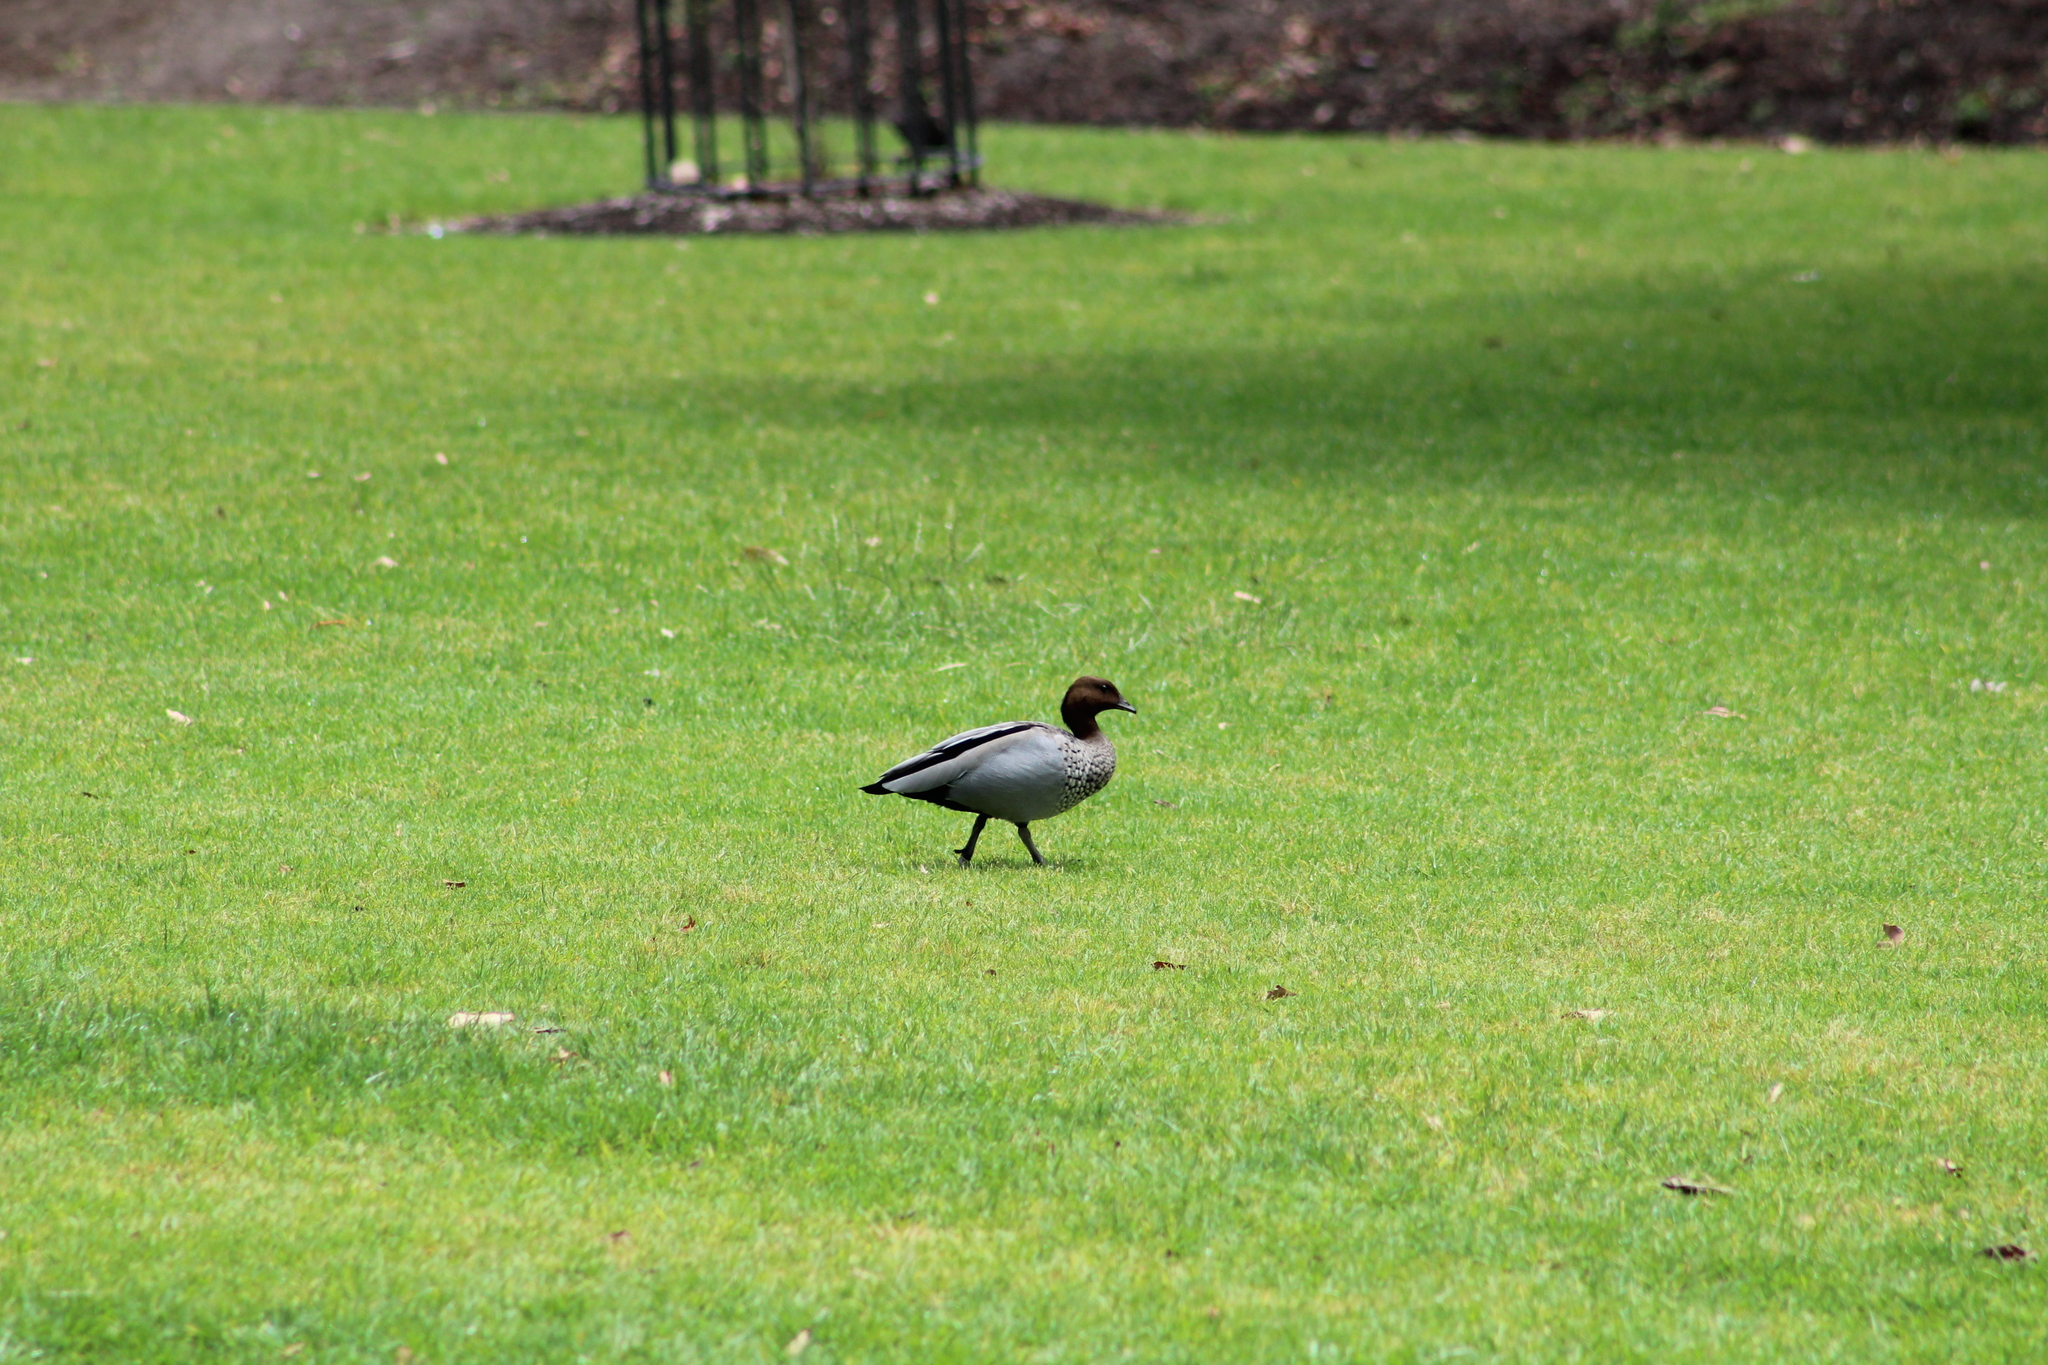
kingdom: Animalia
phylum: Chordata
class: Aves
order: Anseriformes
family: Anatidae
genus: Chenonetta
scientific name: Chenonetta jubata
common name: Maned duck
